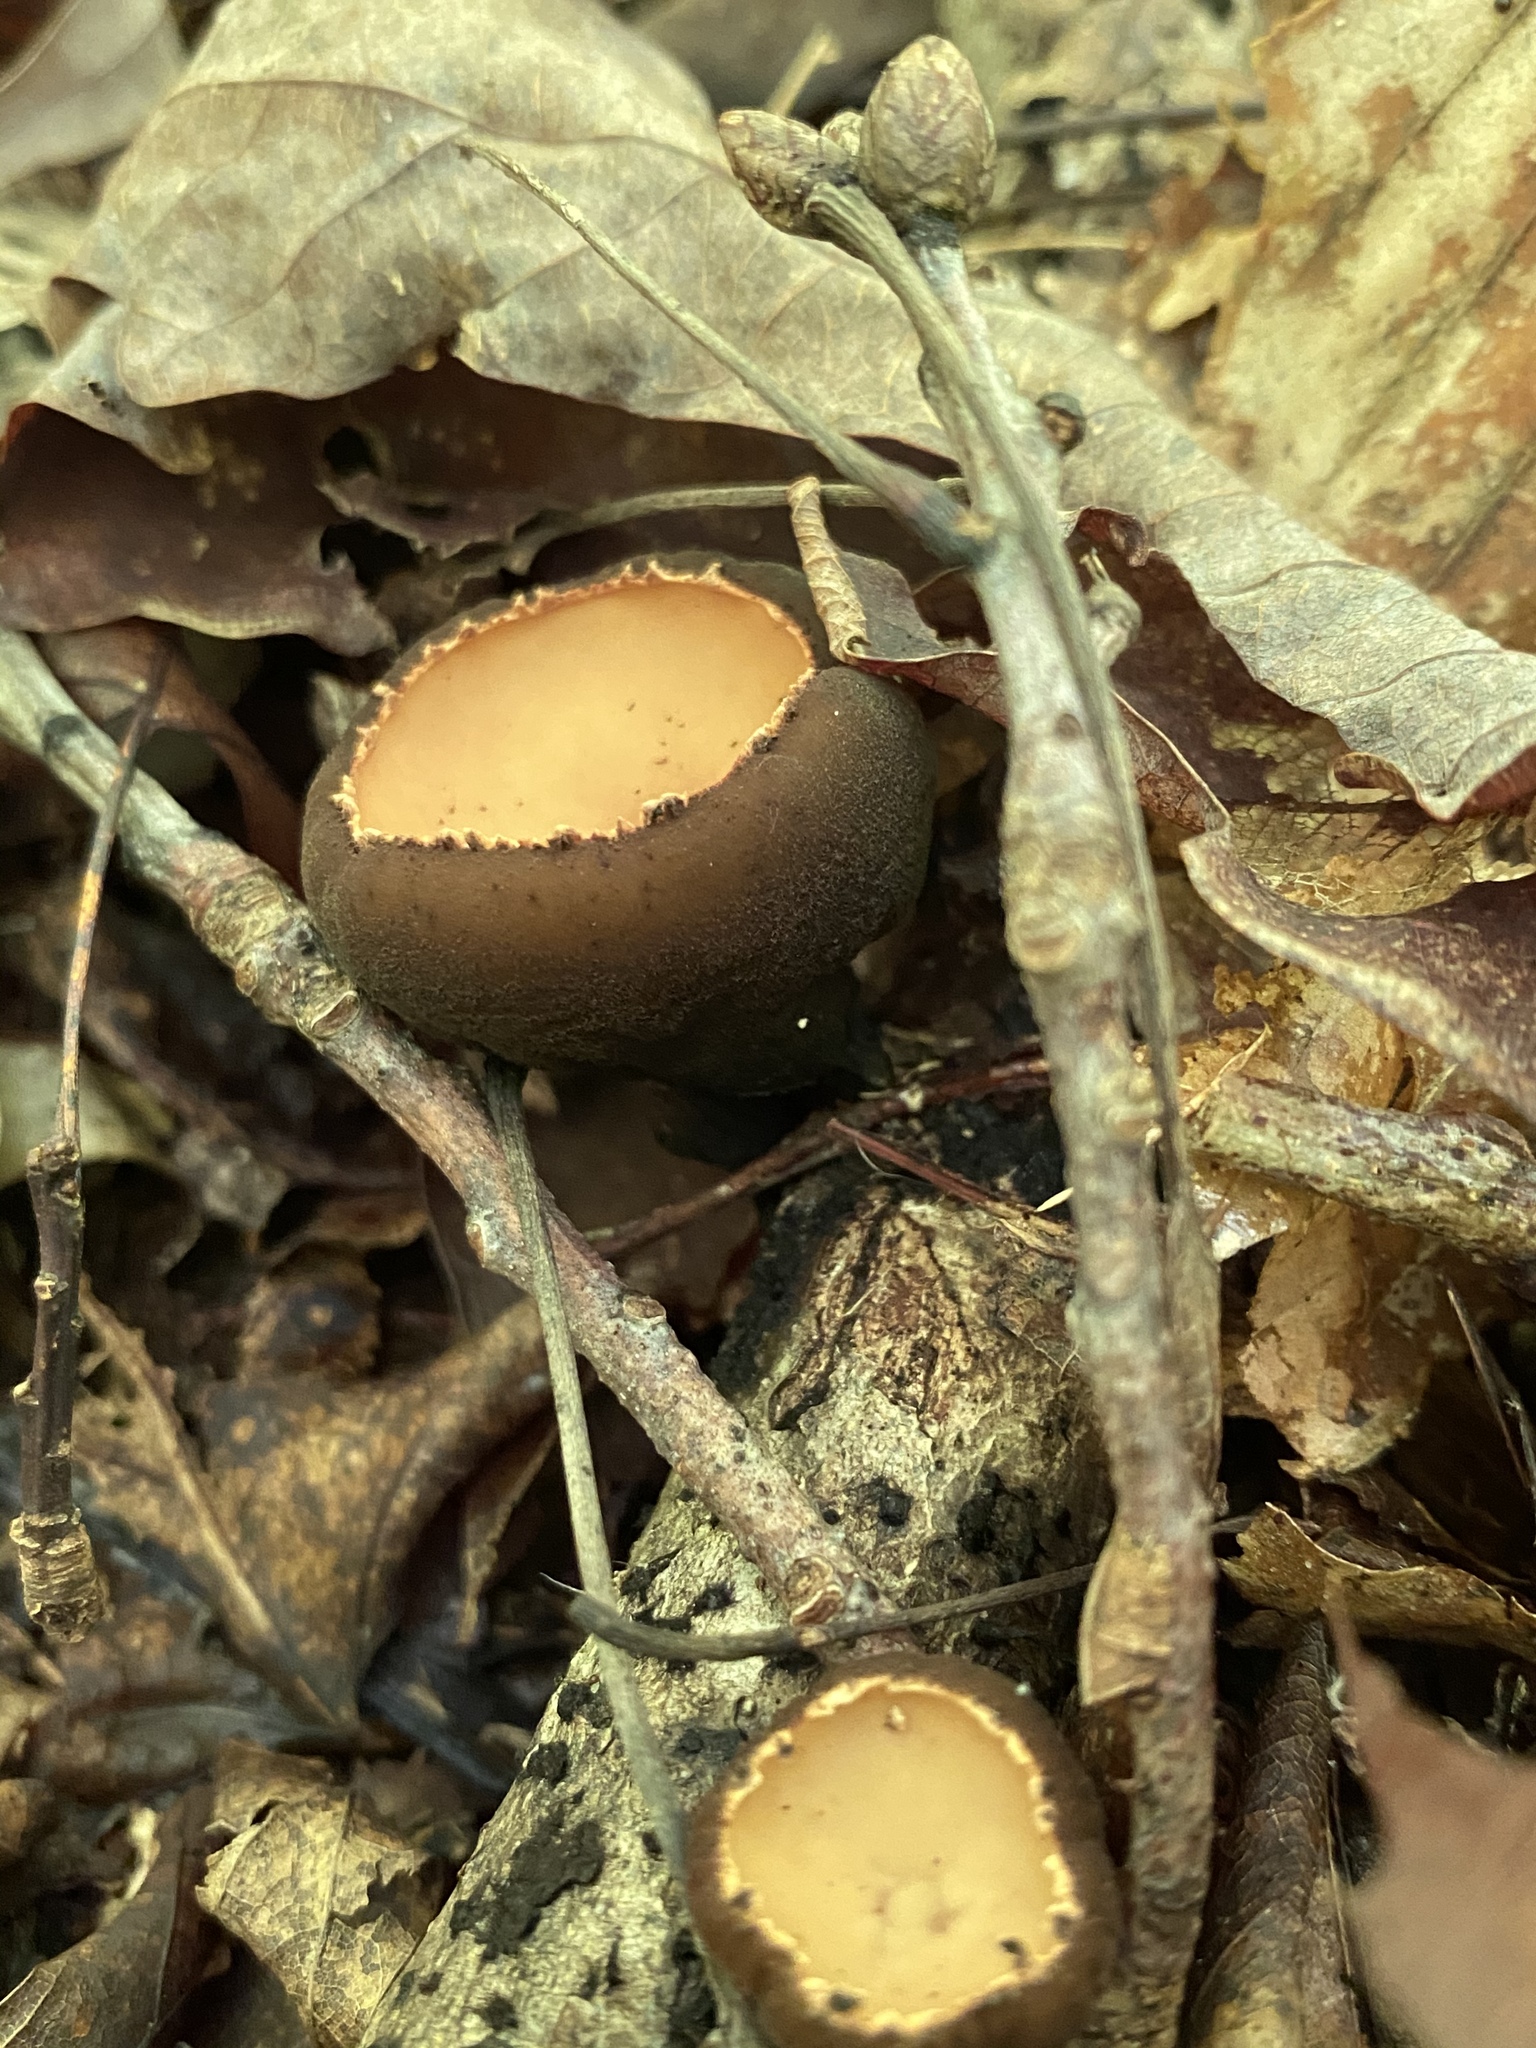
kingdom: Fungi
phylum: Ascomycota
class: Pezizomycetes
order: Pezizales
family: Sarcosomataceae
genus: Galiella
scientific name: Galiella rufa
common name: Hairy rubber cup
